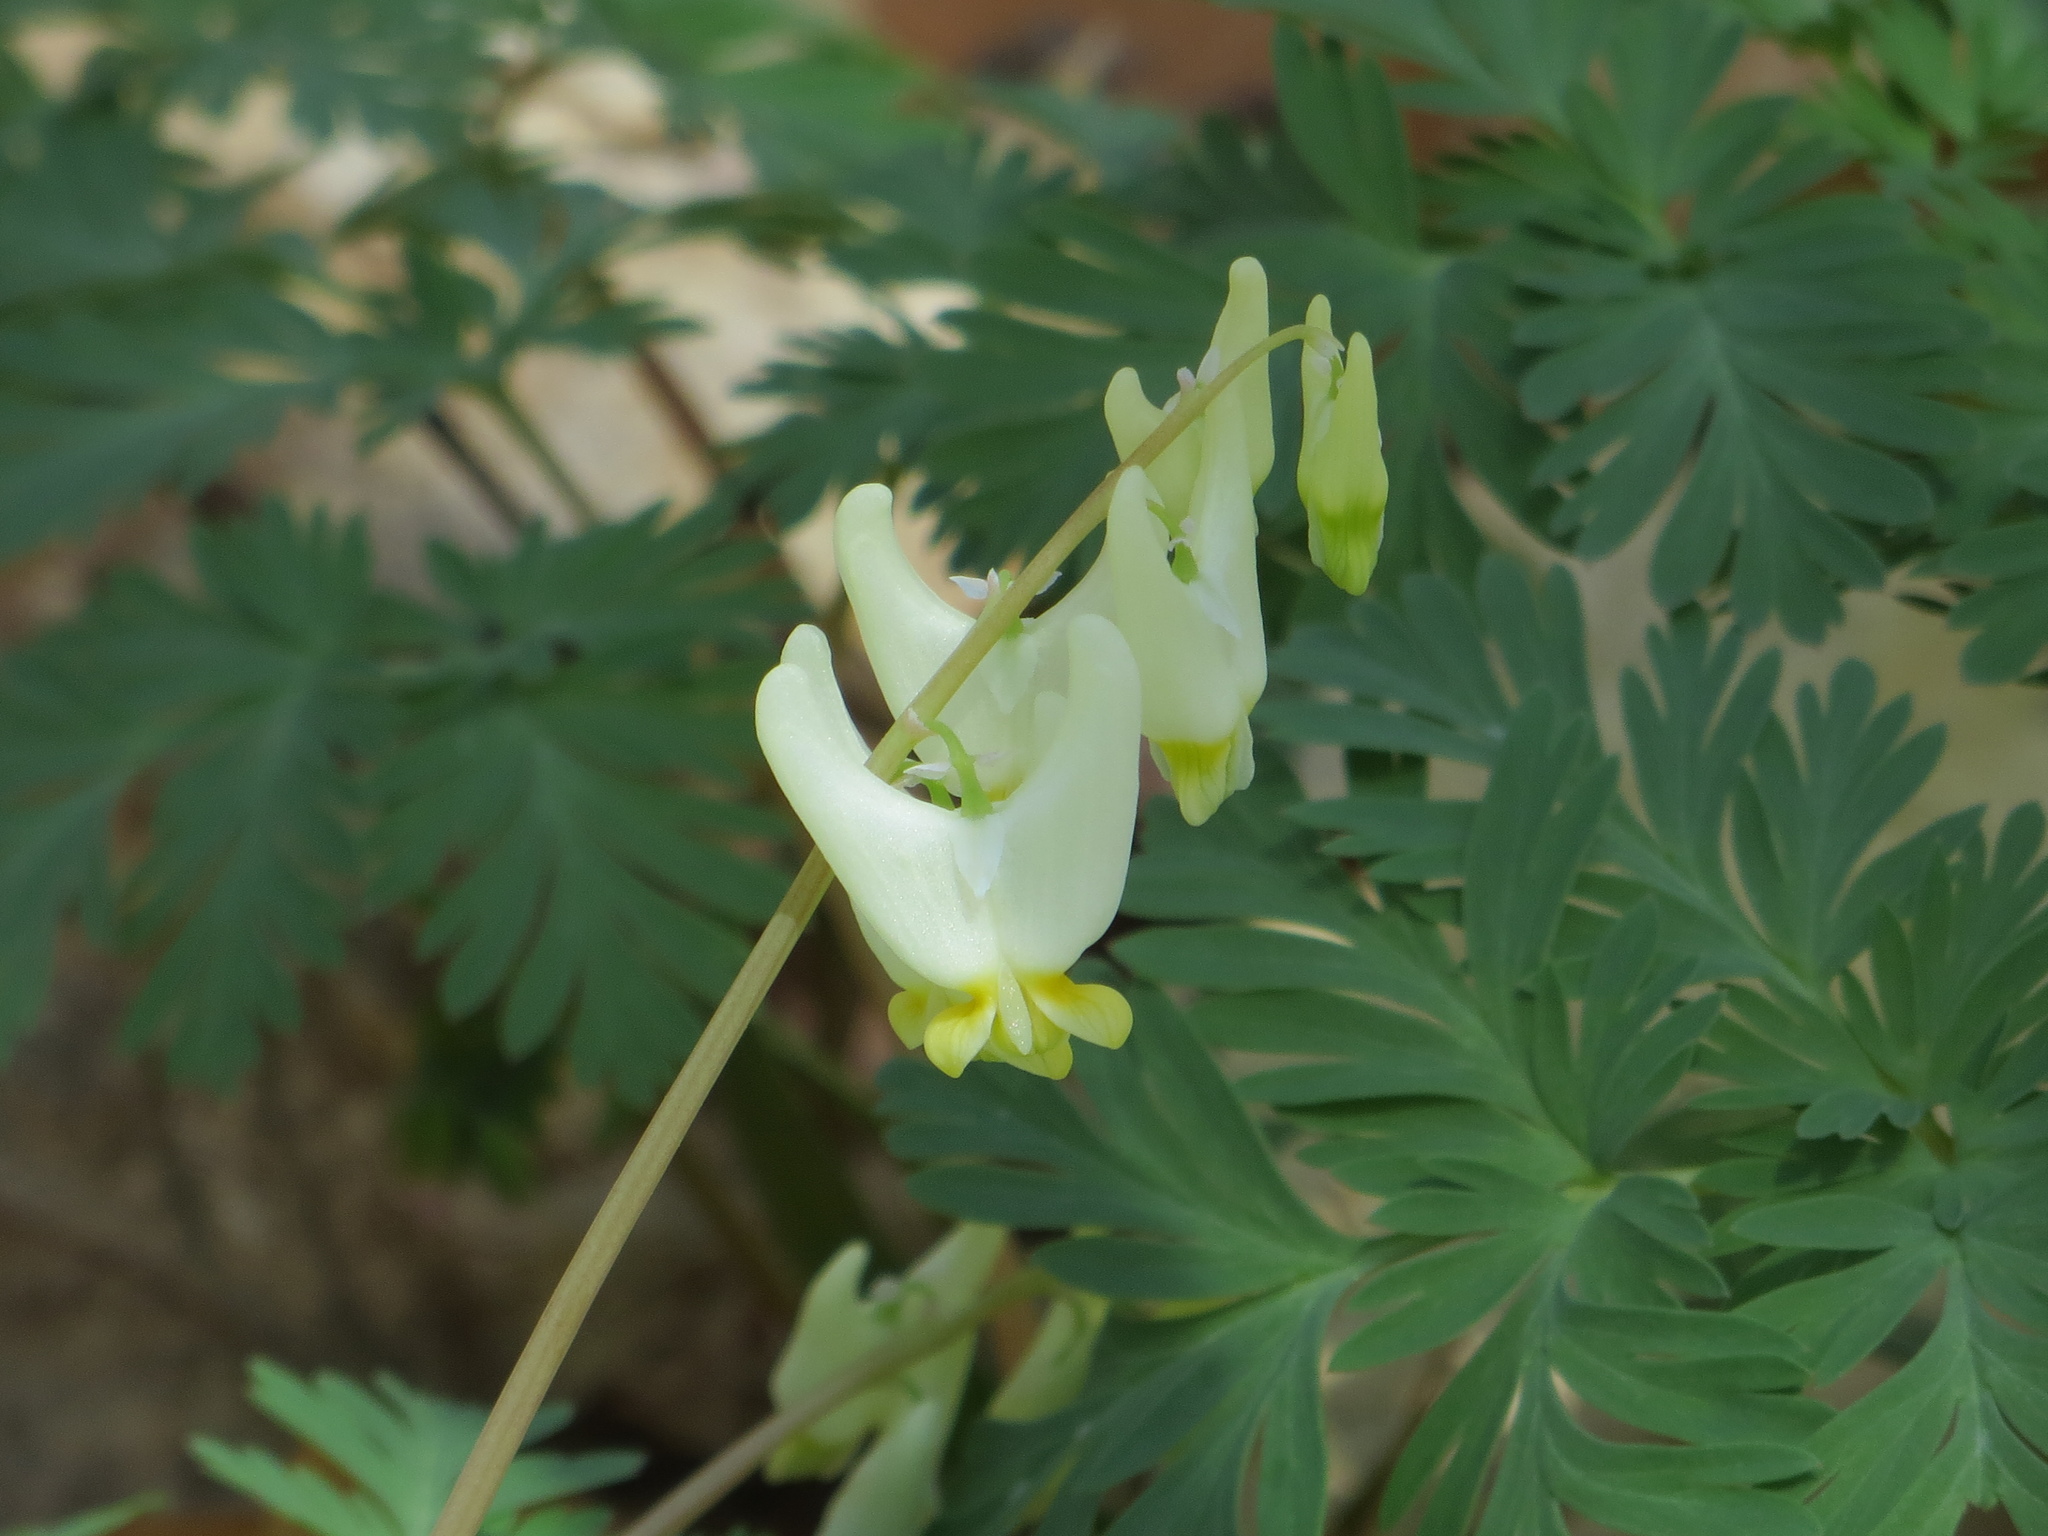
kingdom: Plantae
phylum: Tracheophyta
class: Magnoliopsida
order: Ranunculales
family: Papaveraceae
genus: Dicentra
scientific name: Dicentra cucullaria
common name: Dutchman's breeches
